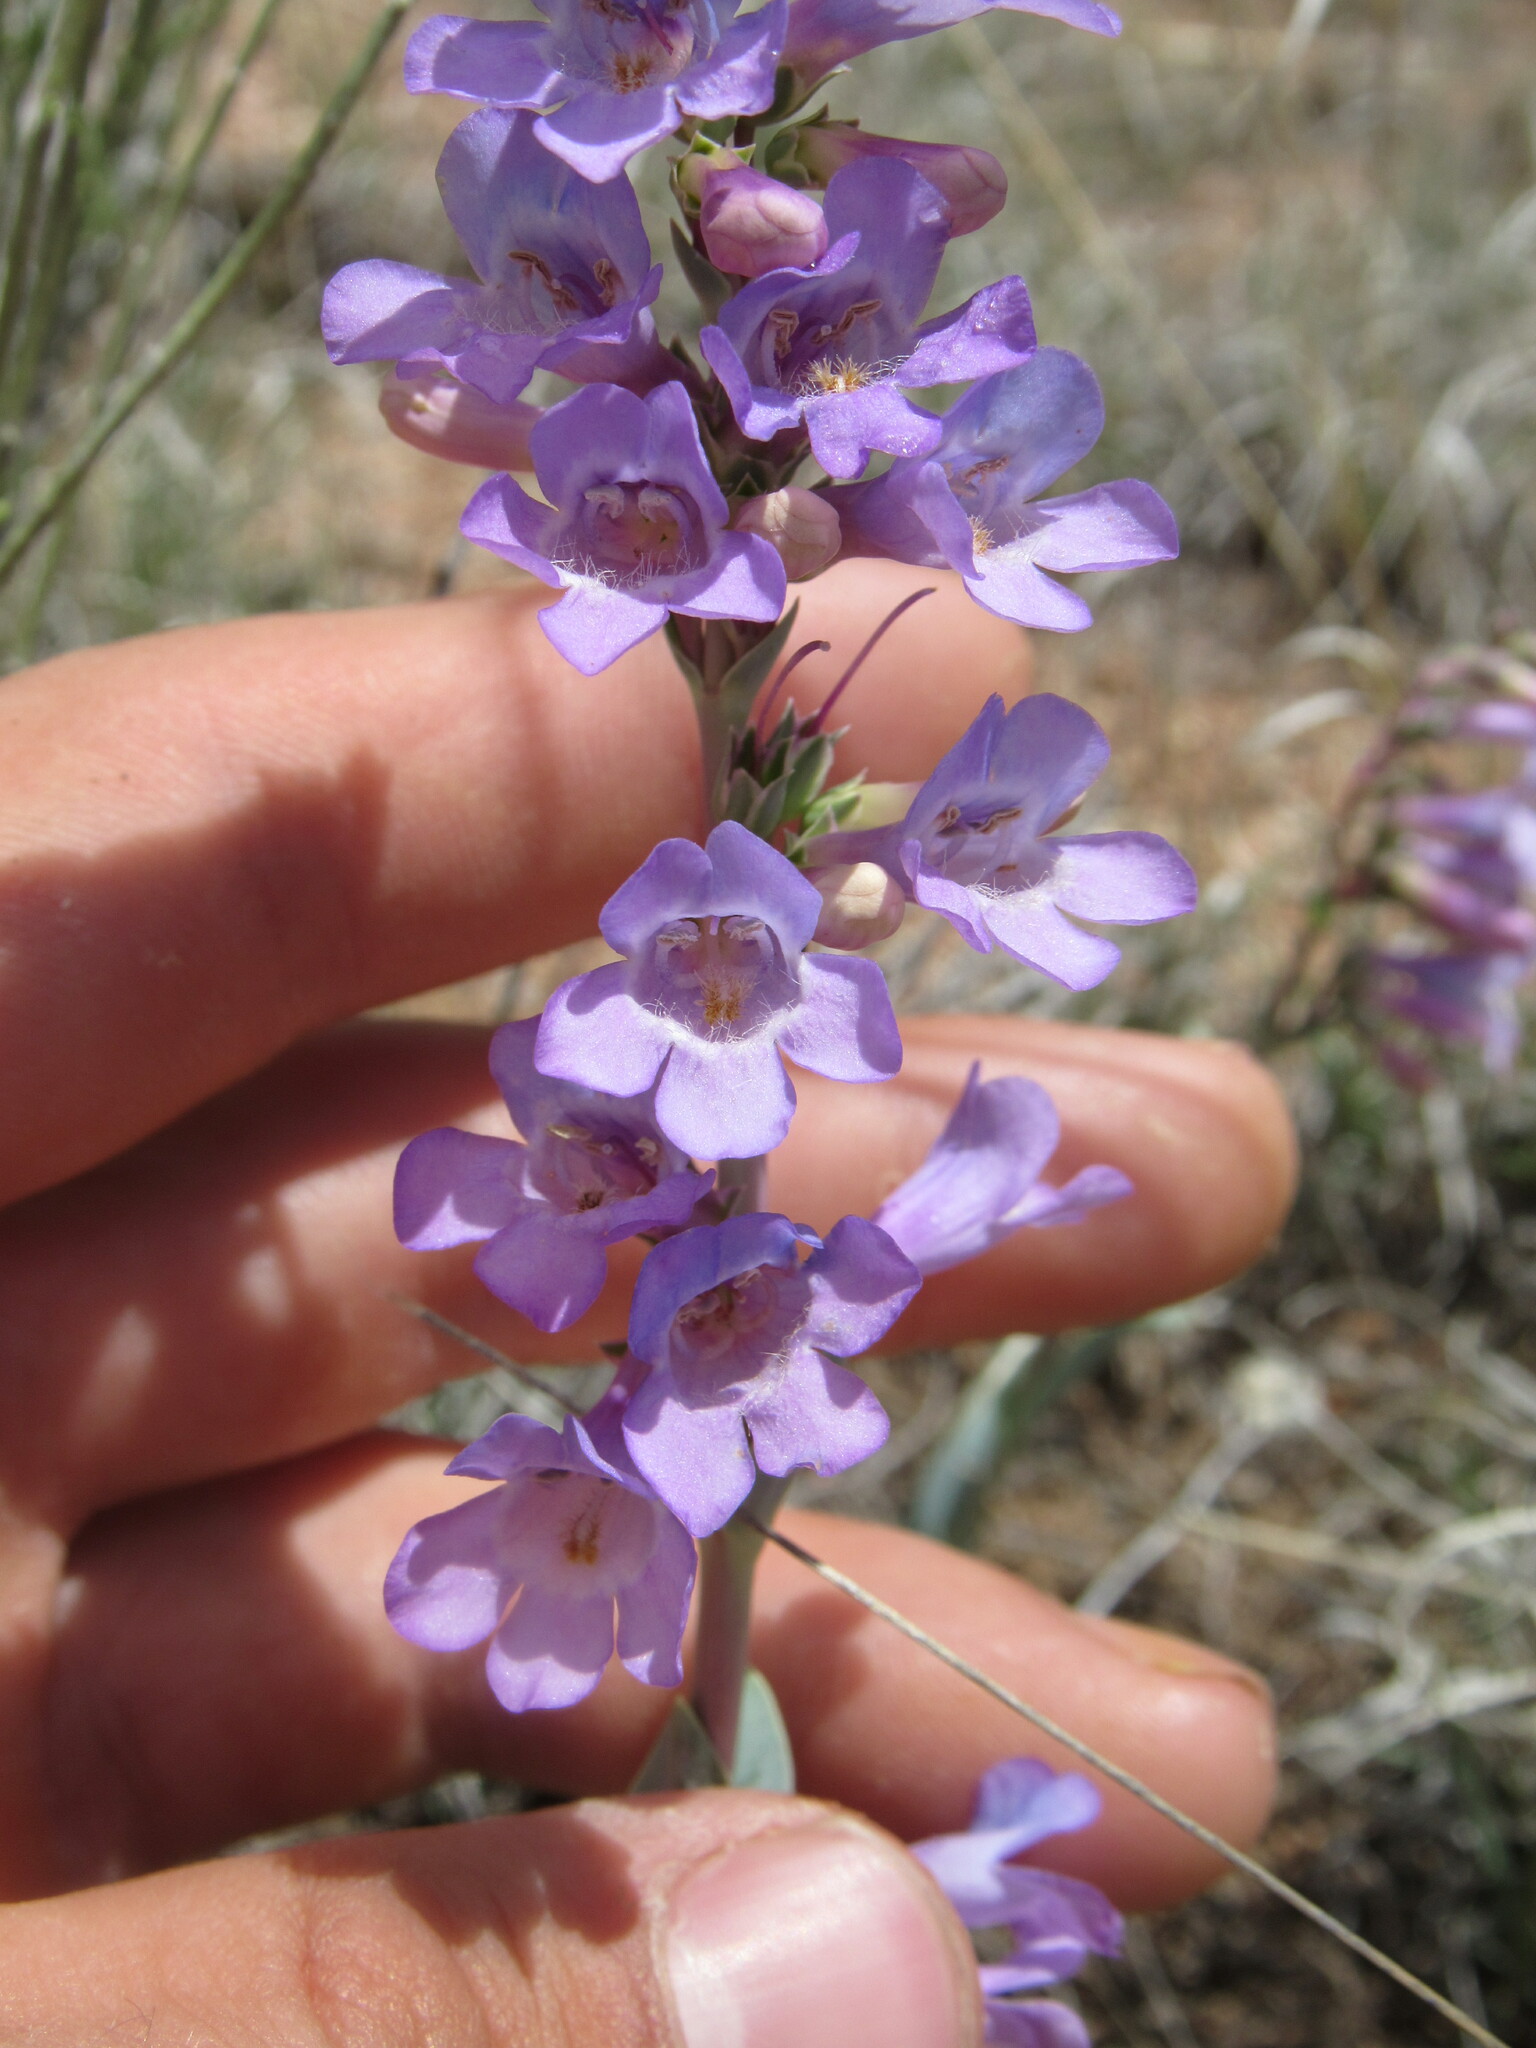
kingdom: Plantae
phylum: Tracheophyta
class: Magnoliopsida
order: Lamiales
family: Plantaginaceae
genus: Penstemon
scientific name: Penstemon secundiflorus
